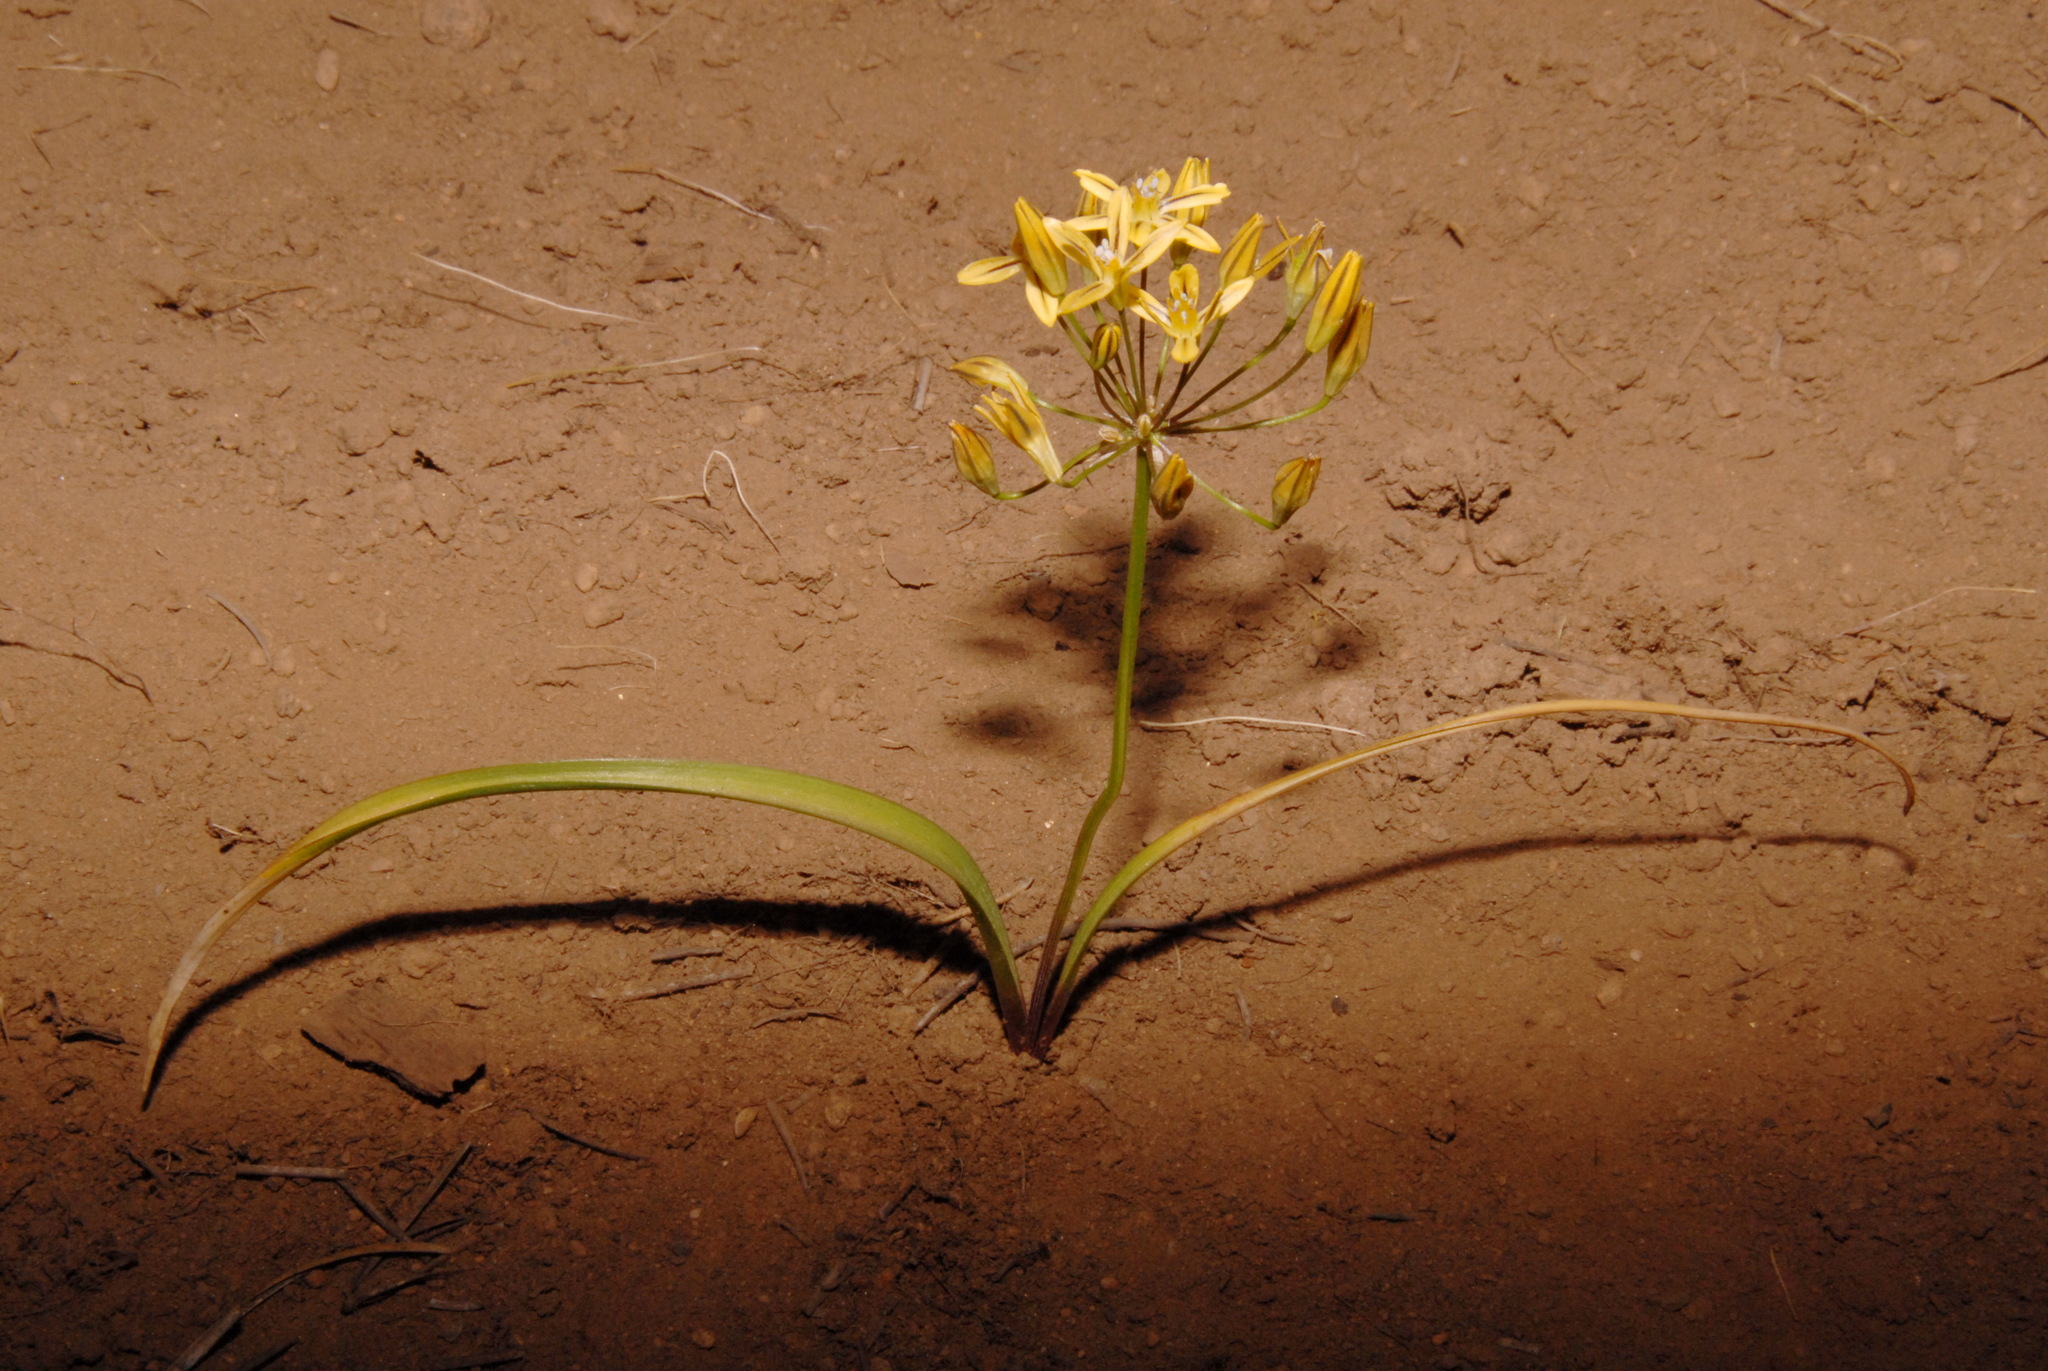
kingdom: Plantae
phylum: Tracheophyta
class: Liliopsida
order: Asparagales
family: Asparagaceae
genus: Triteleia
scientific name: Triteleia ixioides
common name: Yellow-brodiaea
